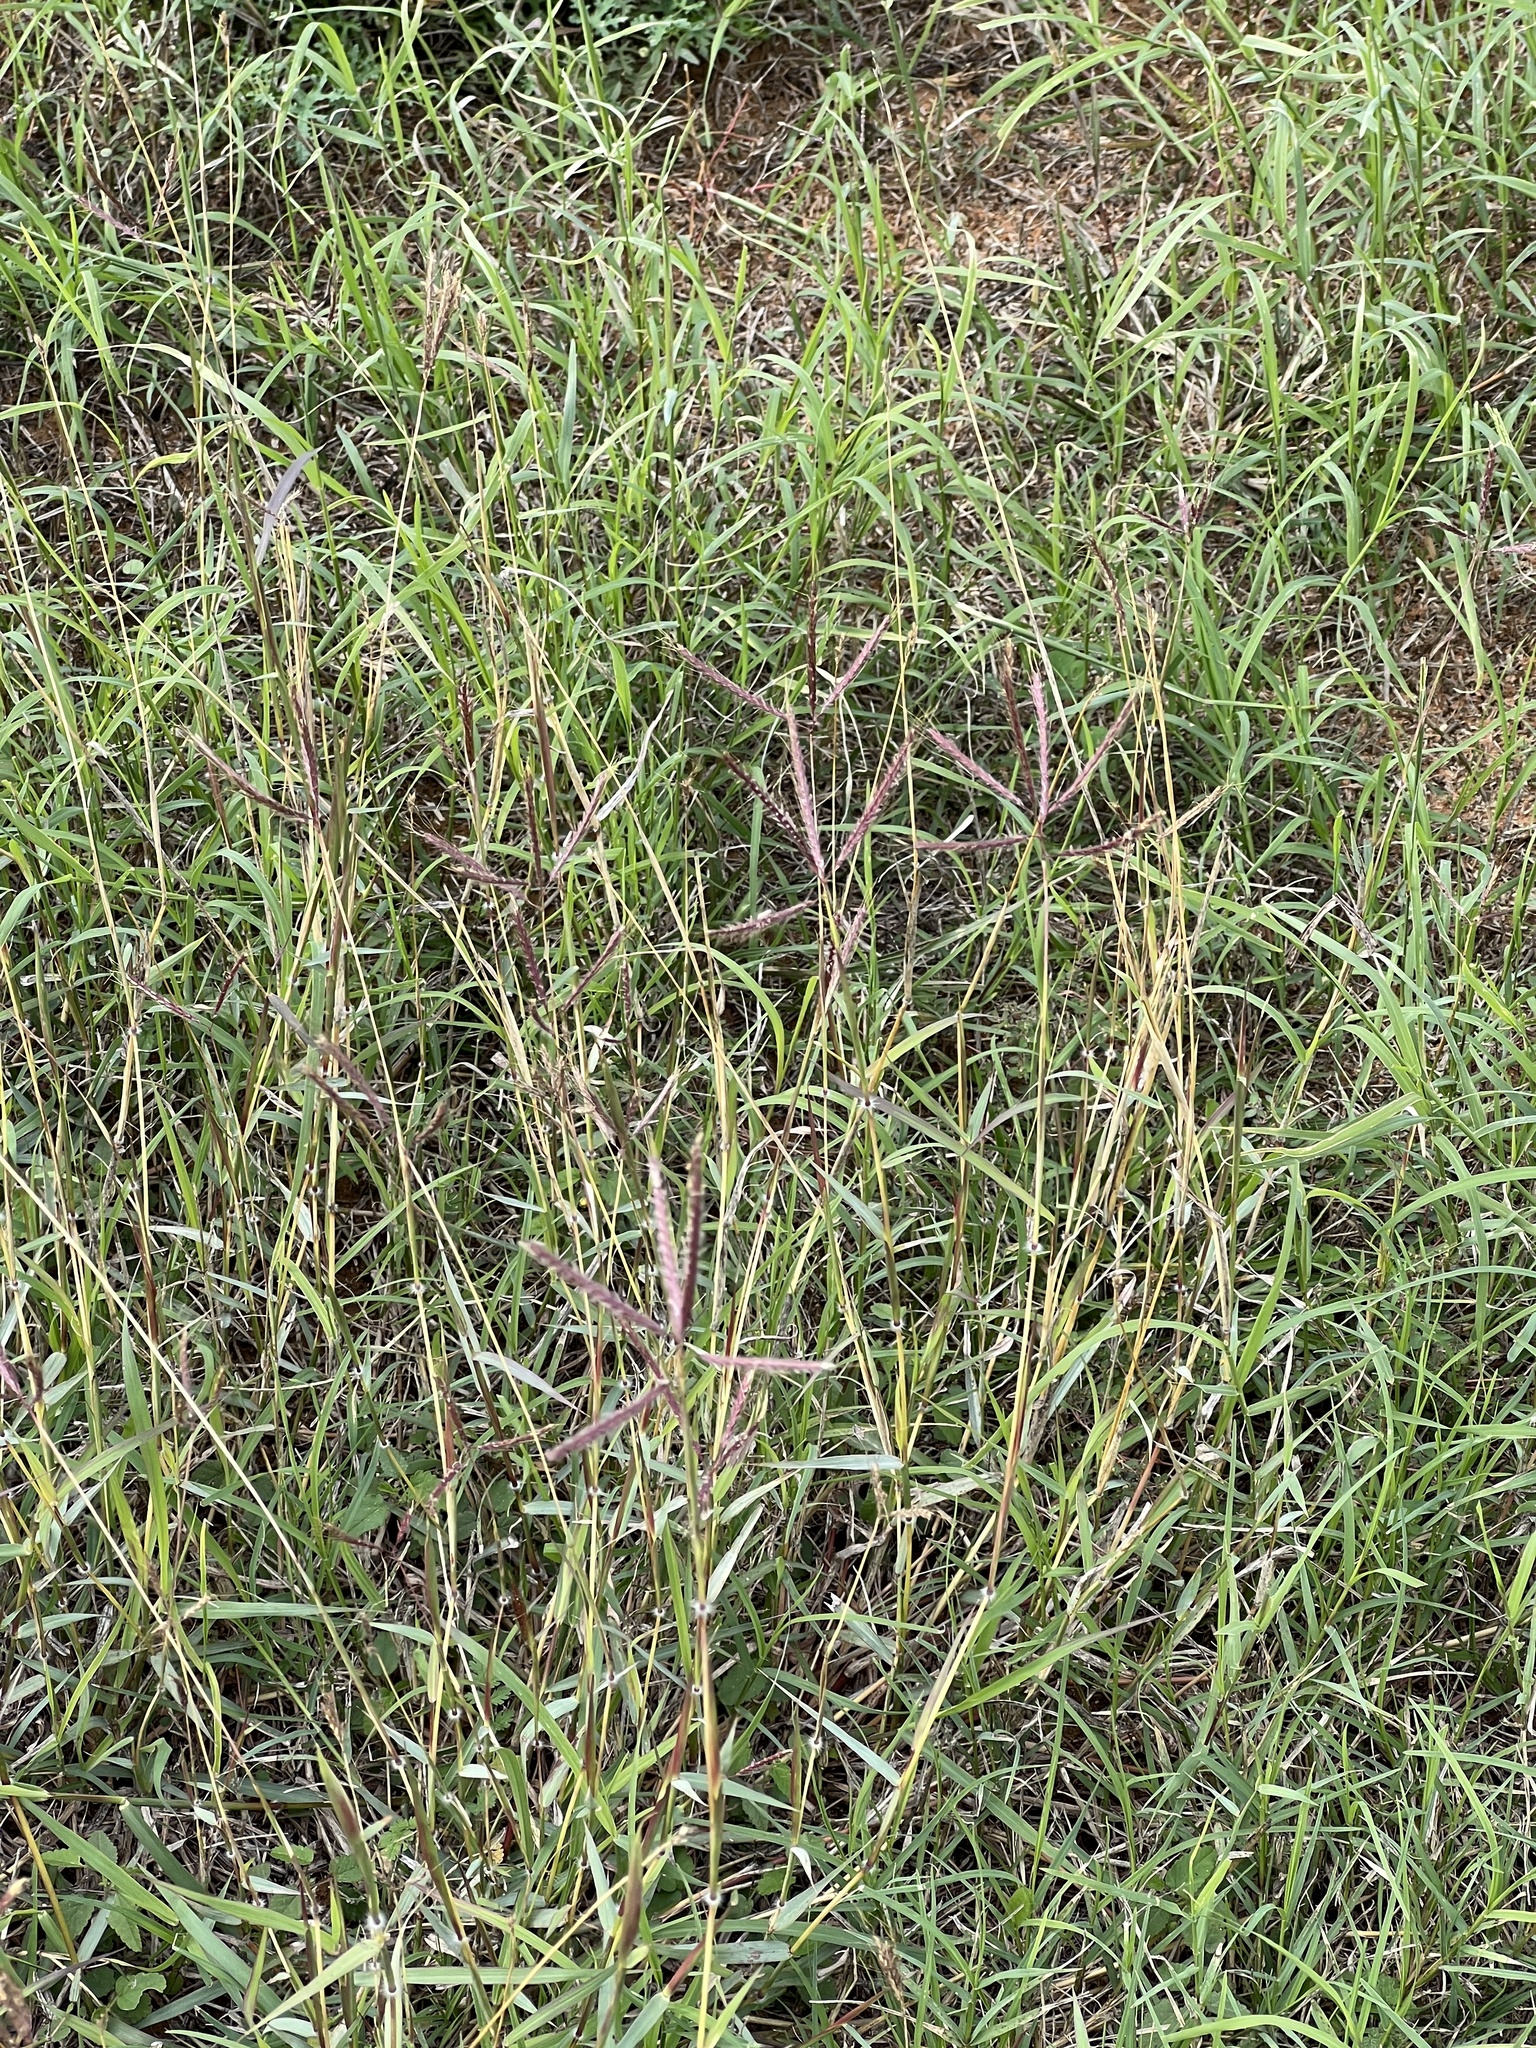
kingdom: Plantae
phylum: Tracheophyta
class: Liliopsida
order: Poales
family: Poaceae
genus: Dichanthium
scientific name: Dichanthium annulatum
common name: Kleberg's bluestem
